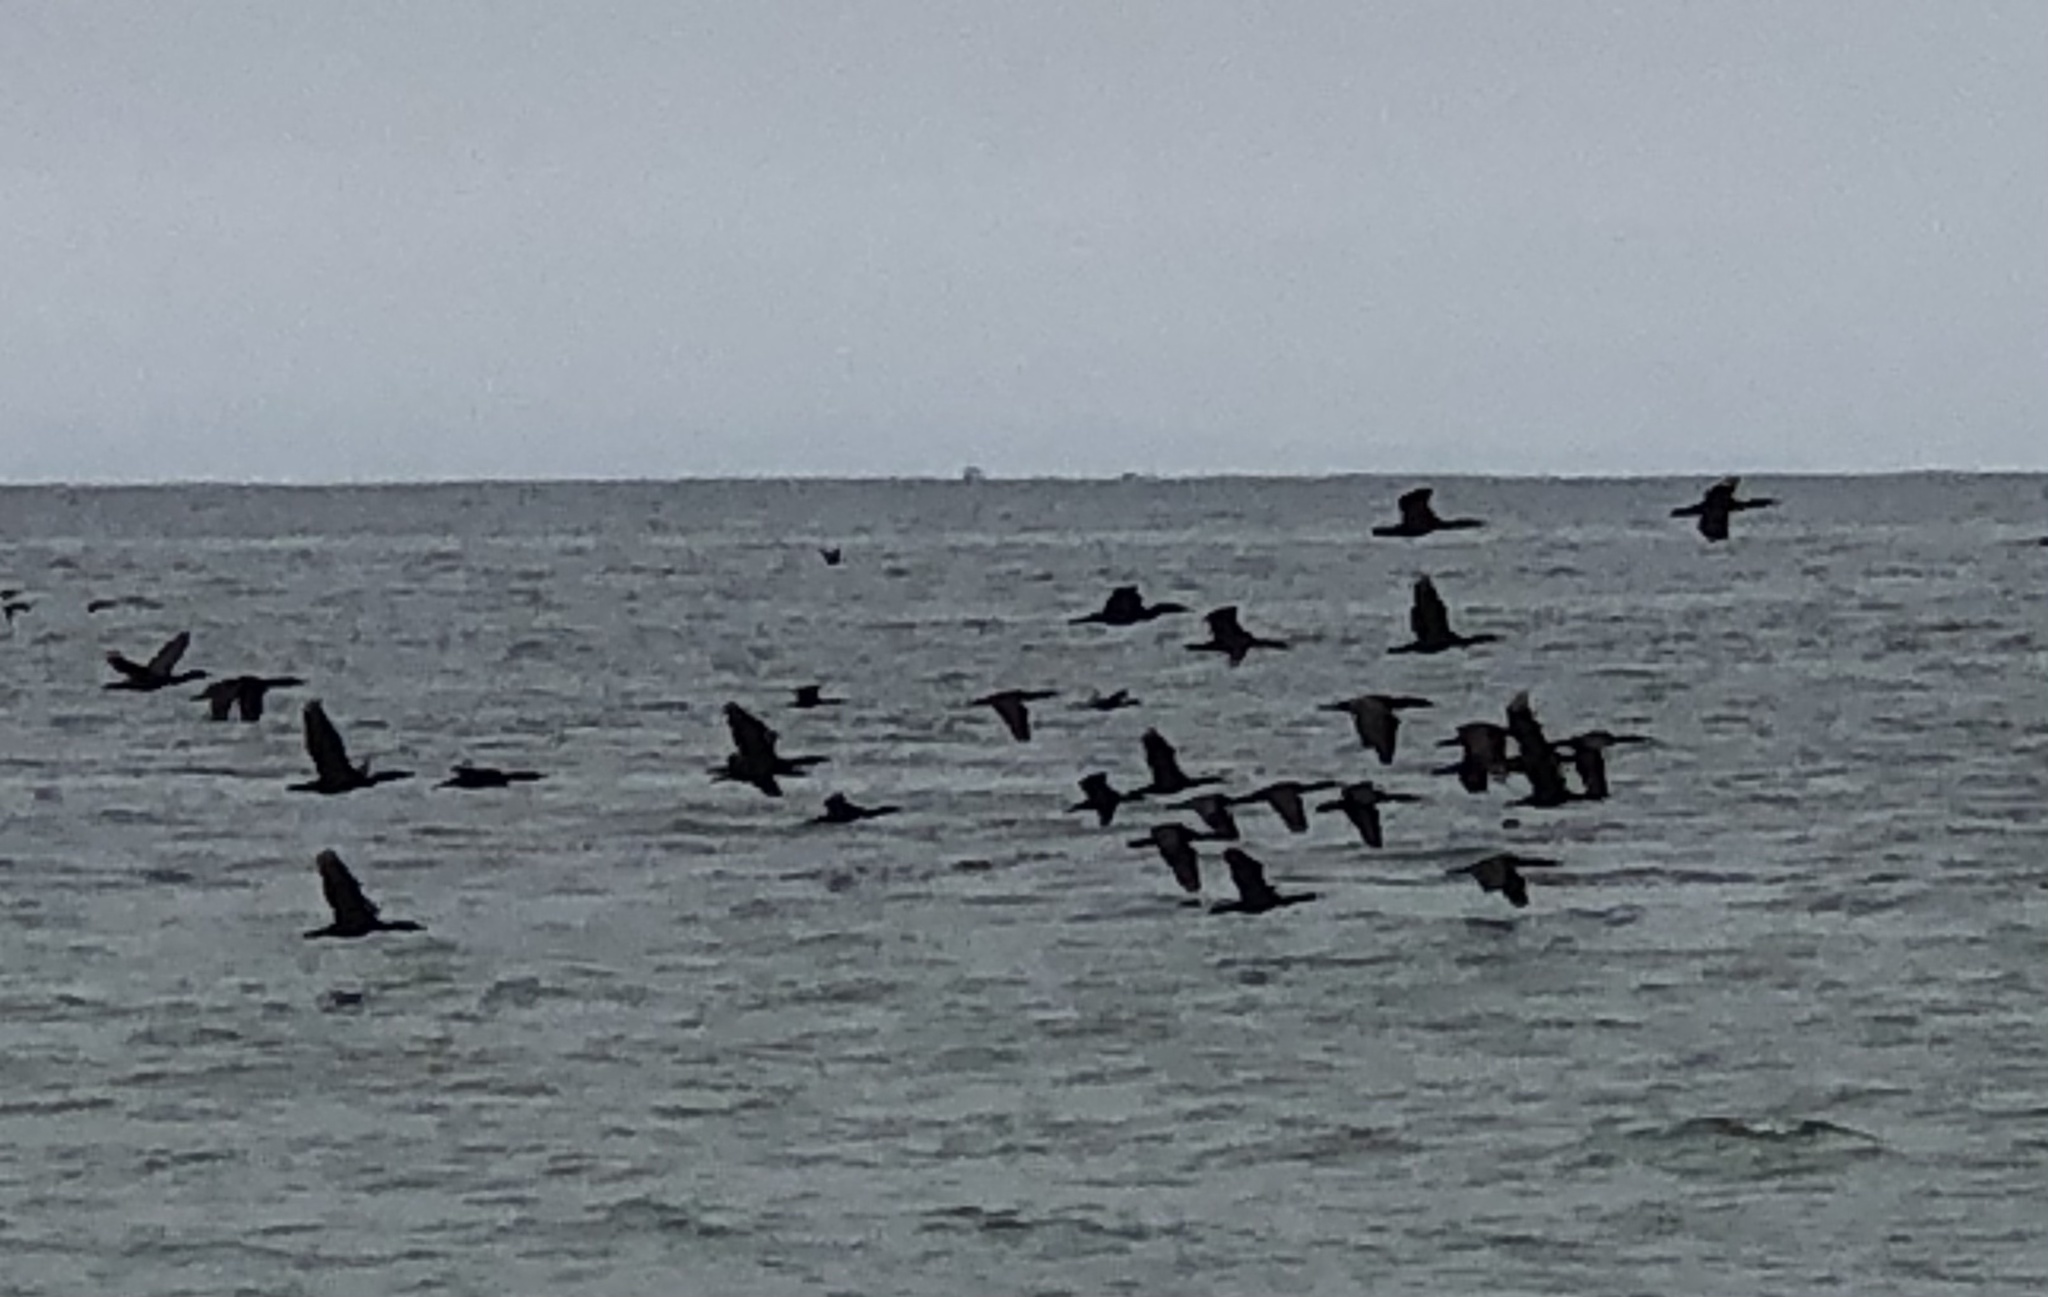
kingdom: Animalia
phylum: Chordata
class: Aves
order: Suliformes
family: Phalacrocoracidae
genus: Urile
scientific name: Urile penicillatus
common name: Brandt's cormorant
